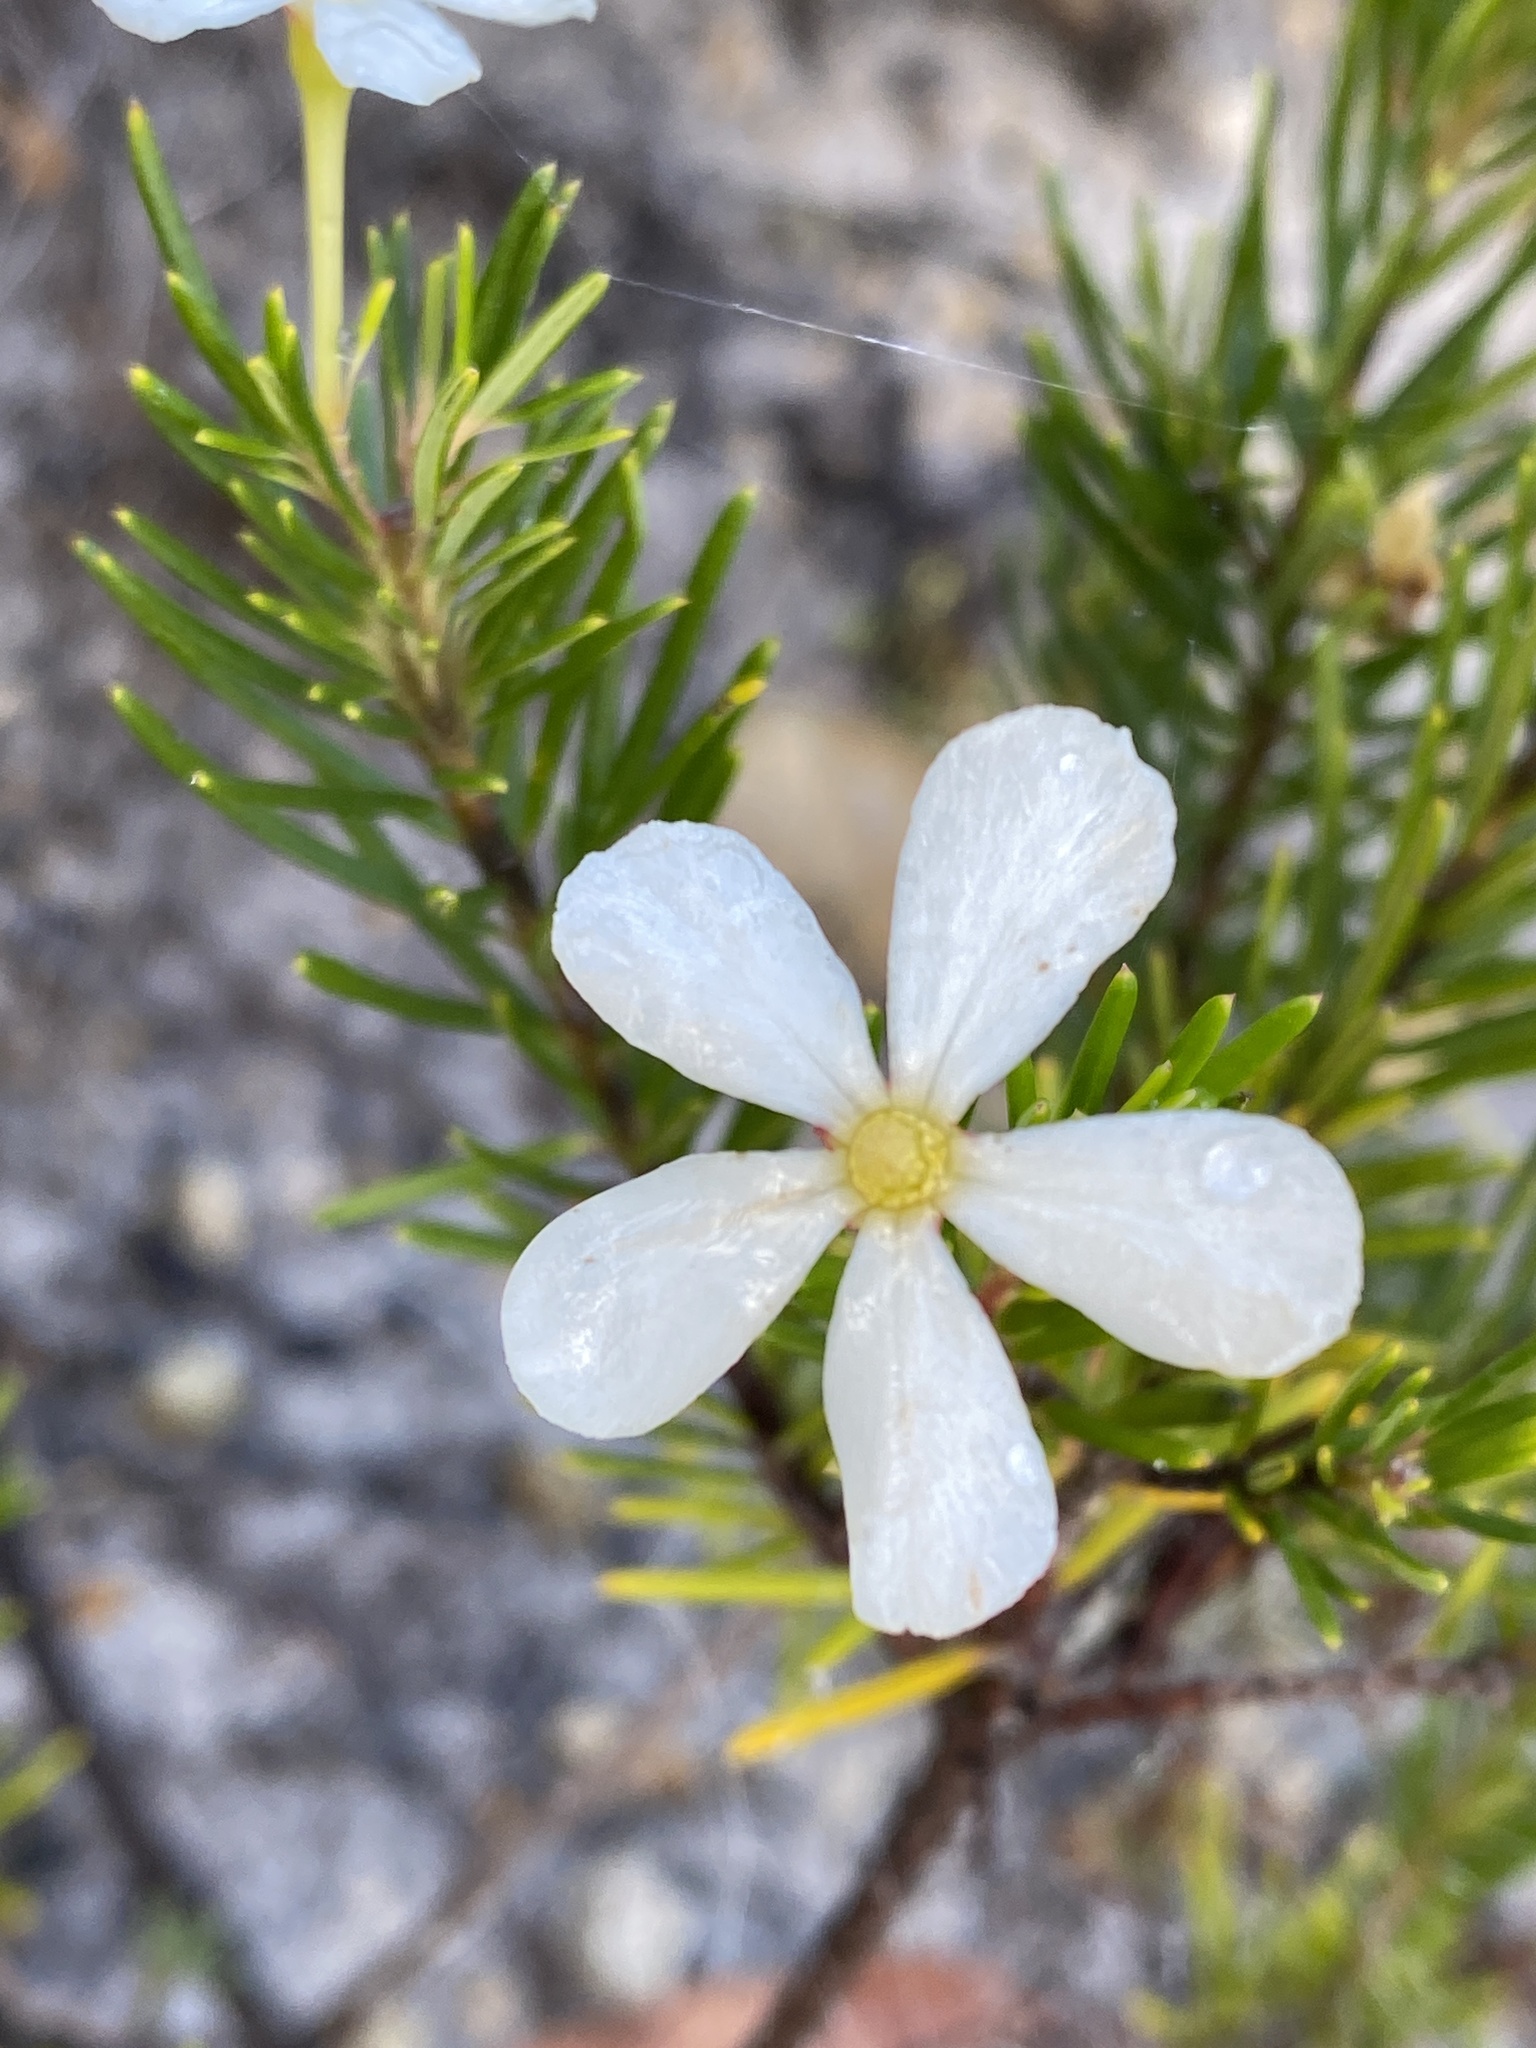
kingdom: Plantae
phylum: Tracheophyta
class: Magnoliopsida
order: Malpighiales
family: Euphorbiaceae
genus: Ricinocarpos
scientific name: Ricinocarpos pinifolius
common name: Weddingbush
